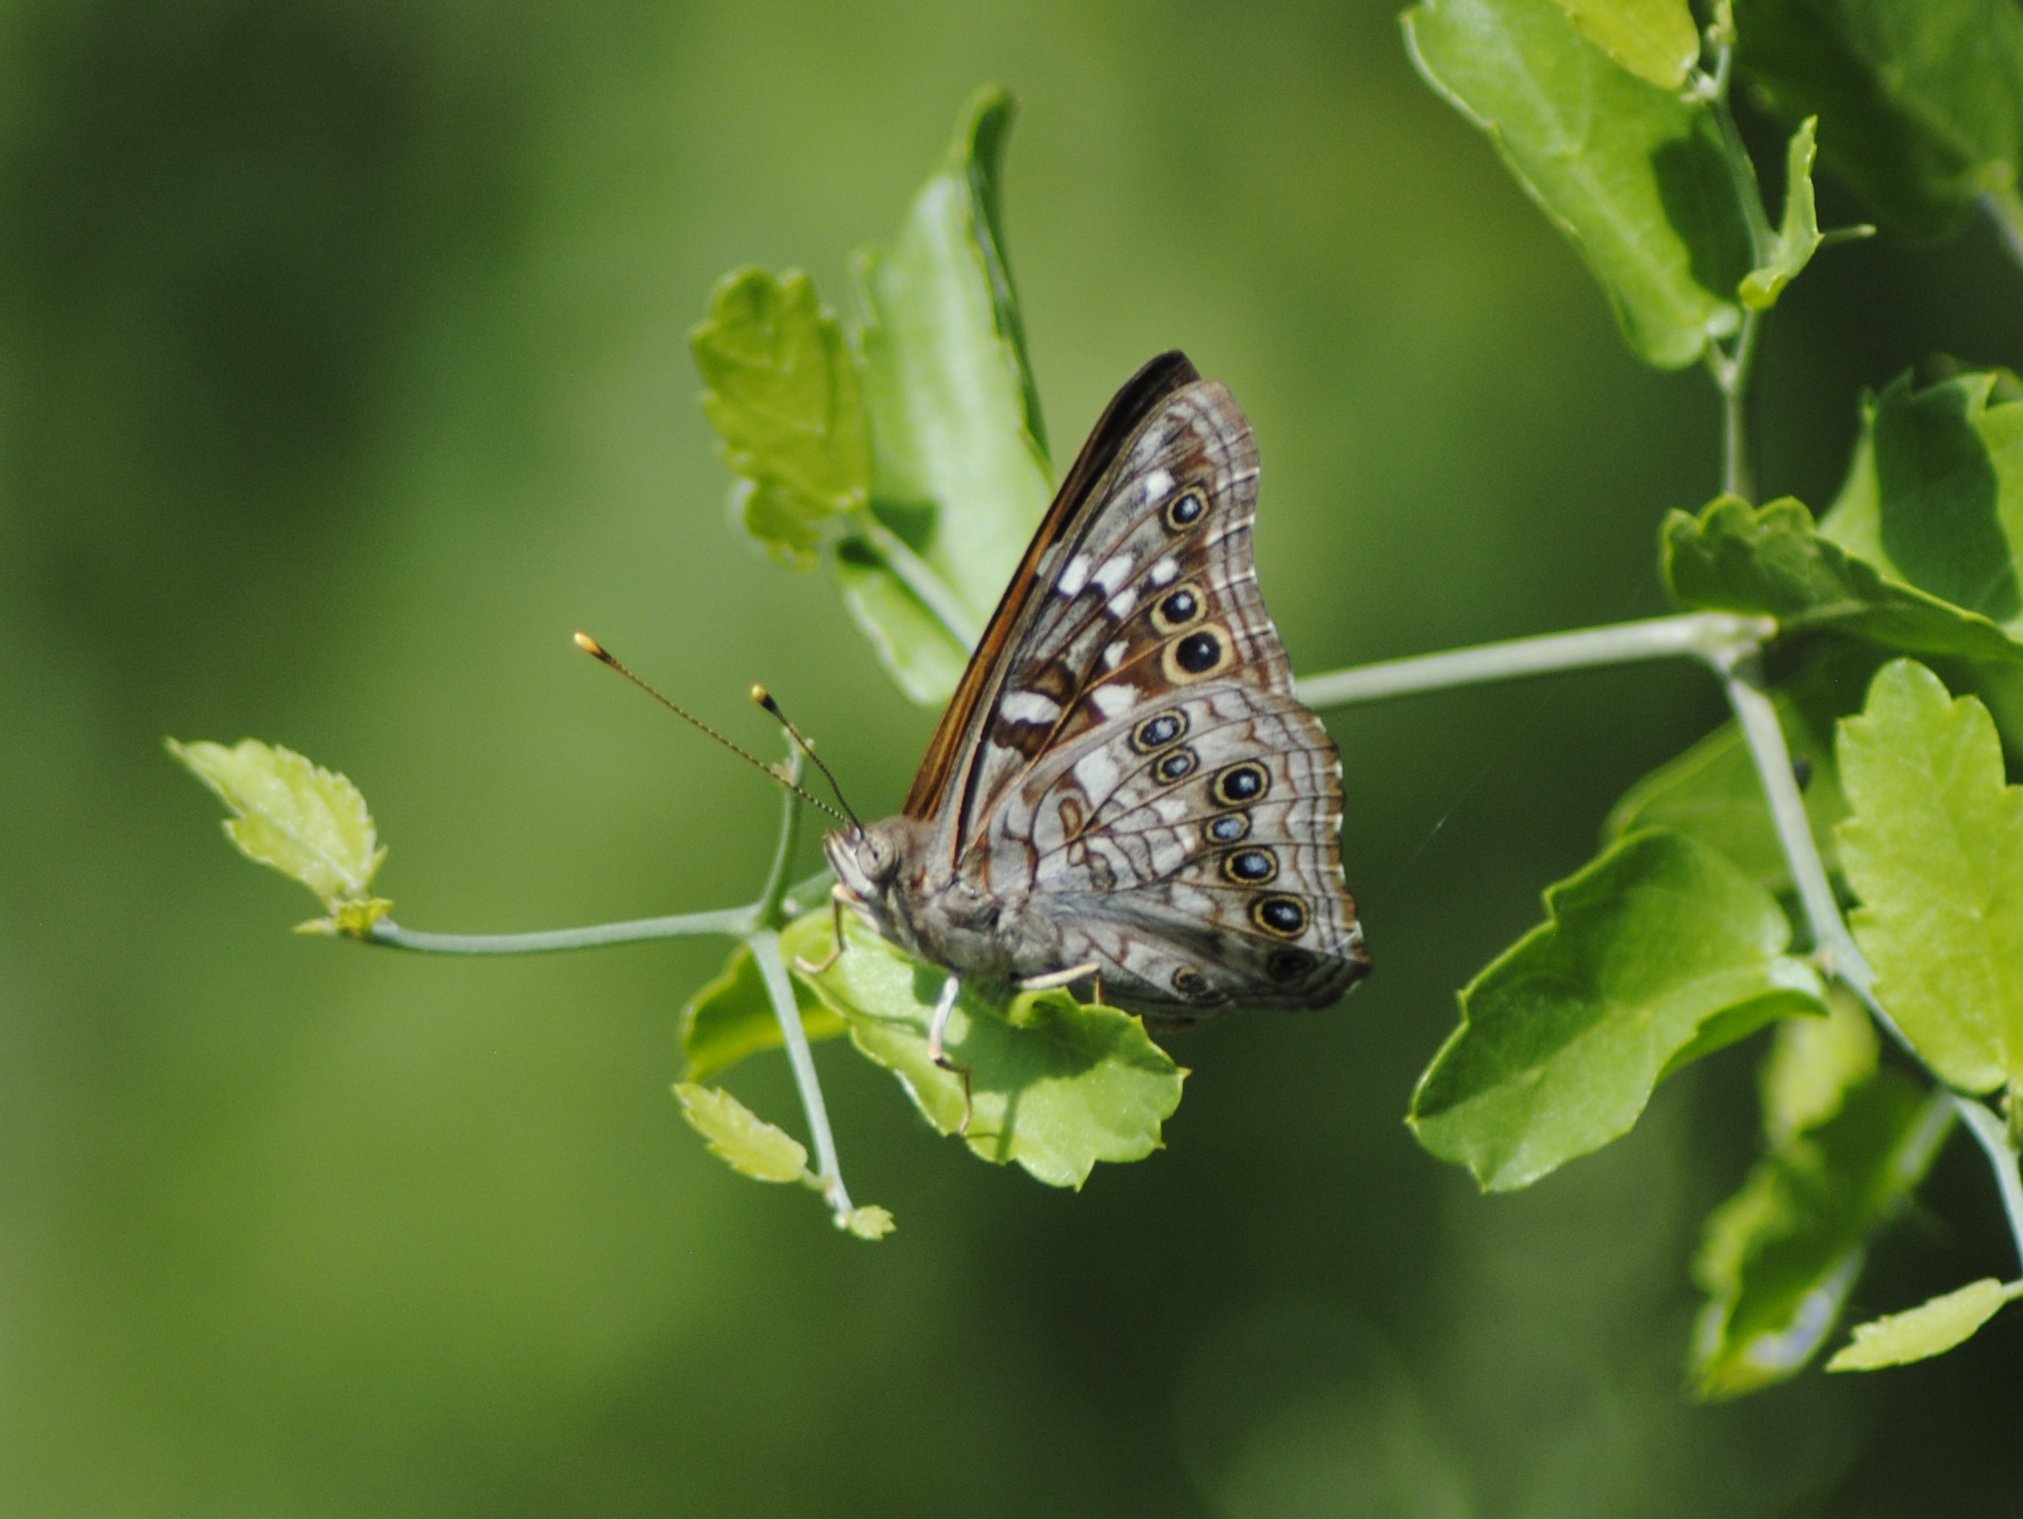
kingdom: Animalia
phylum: Arthropoda
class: Insecta
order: Lepidoptera
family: Nymphalidae
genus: Asterocampa
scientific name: Asterocampa leilia
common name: Empress leilia
